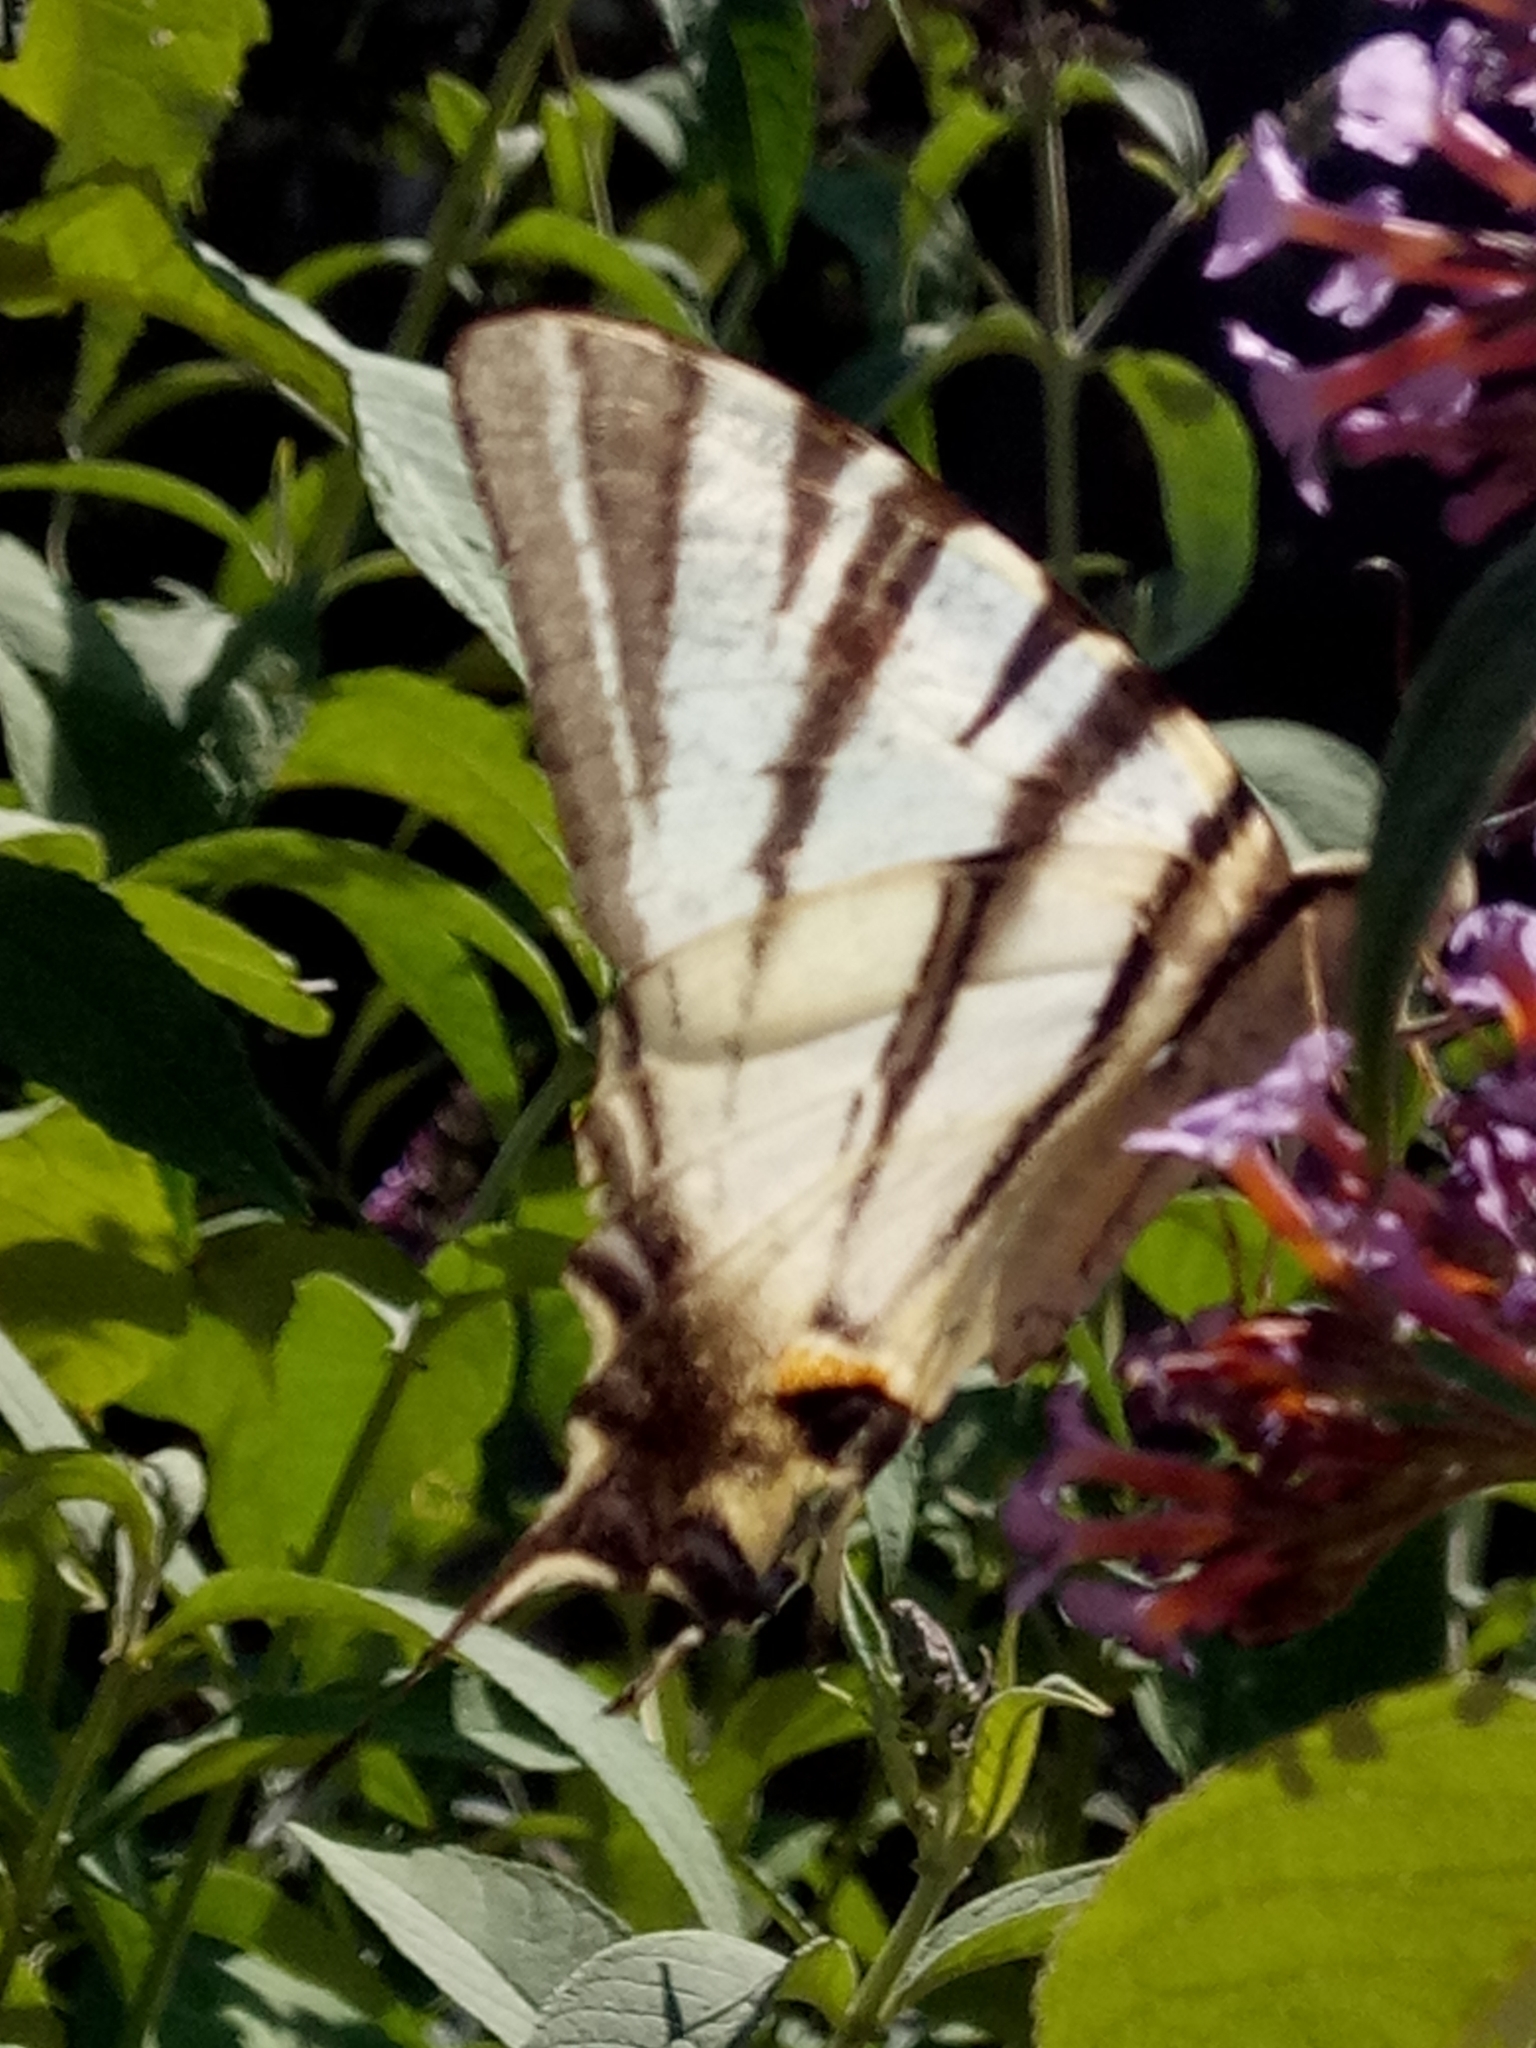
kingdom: Animalia
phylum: Arthropoda
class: Insecta
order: Lepidoptera
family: Papilionidae
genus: Iphiclides
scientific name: Iphiclides podalirius
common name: Scarce swallowtail
